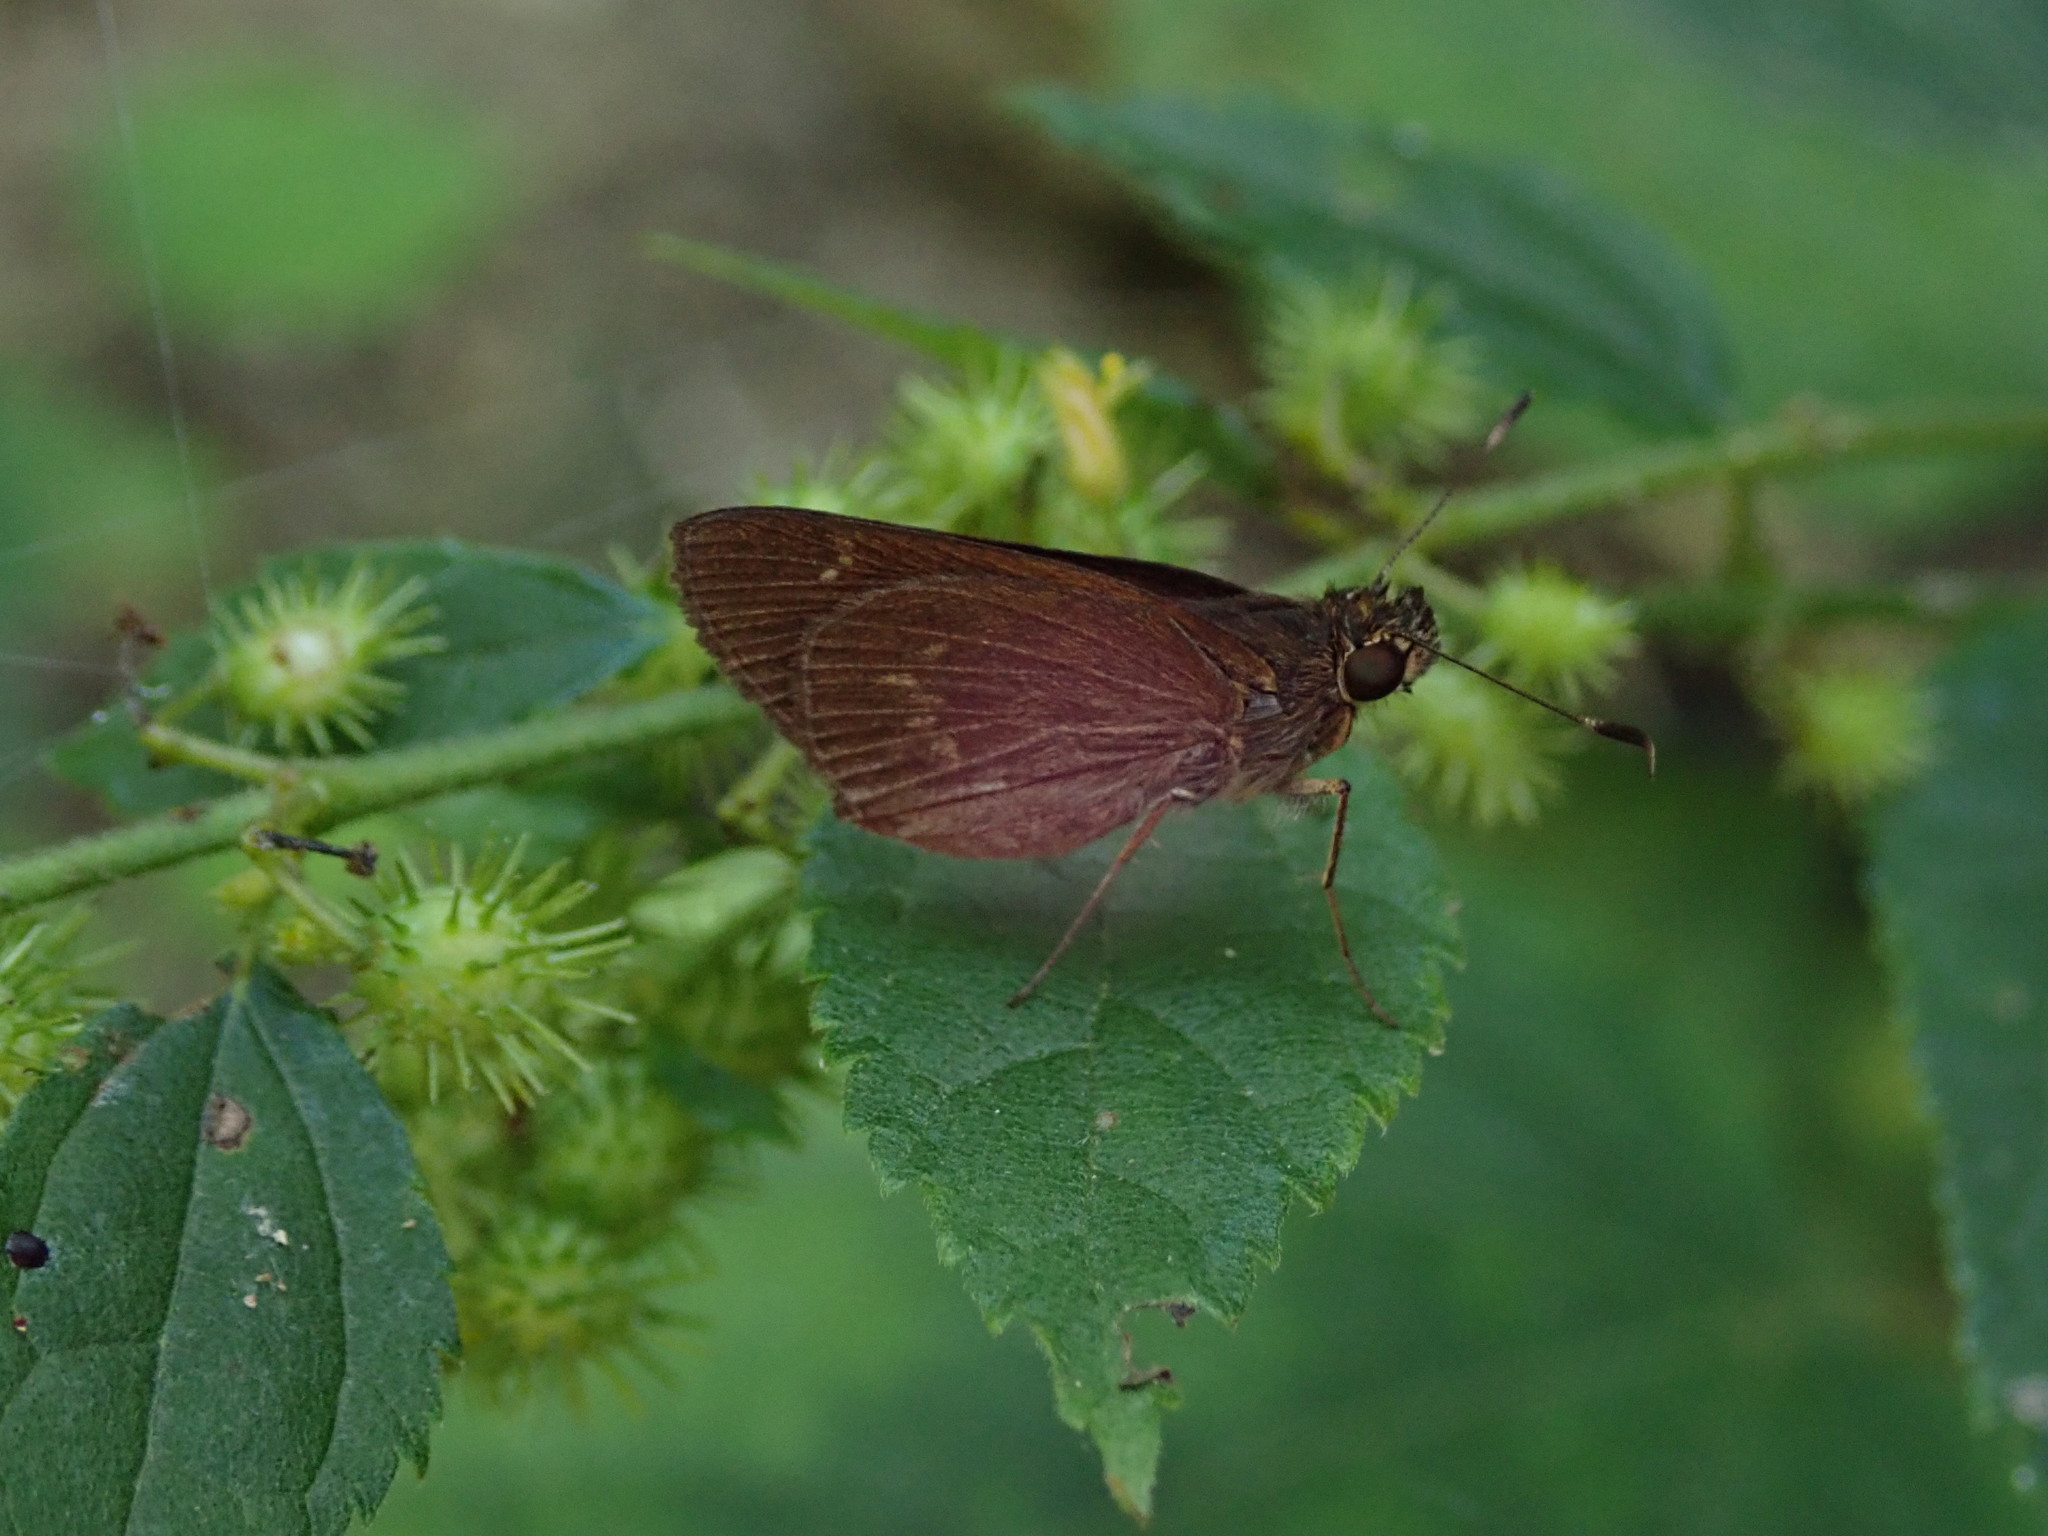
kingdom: Animalia
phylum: Arthropoda
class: Insecta
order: Lepidoptera
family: Hesperiidae
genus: Cymaenes
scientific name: Cymaenes tripunctus
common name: Dingy dotted skipper
